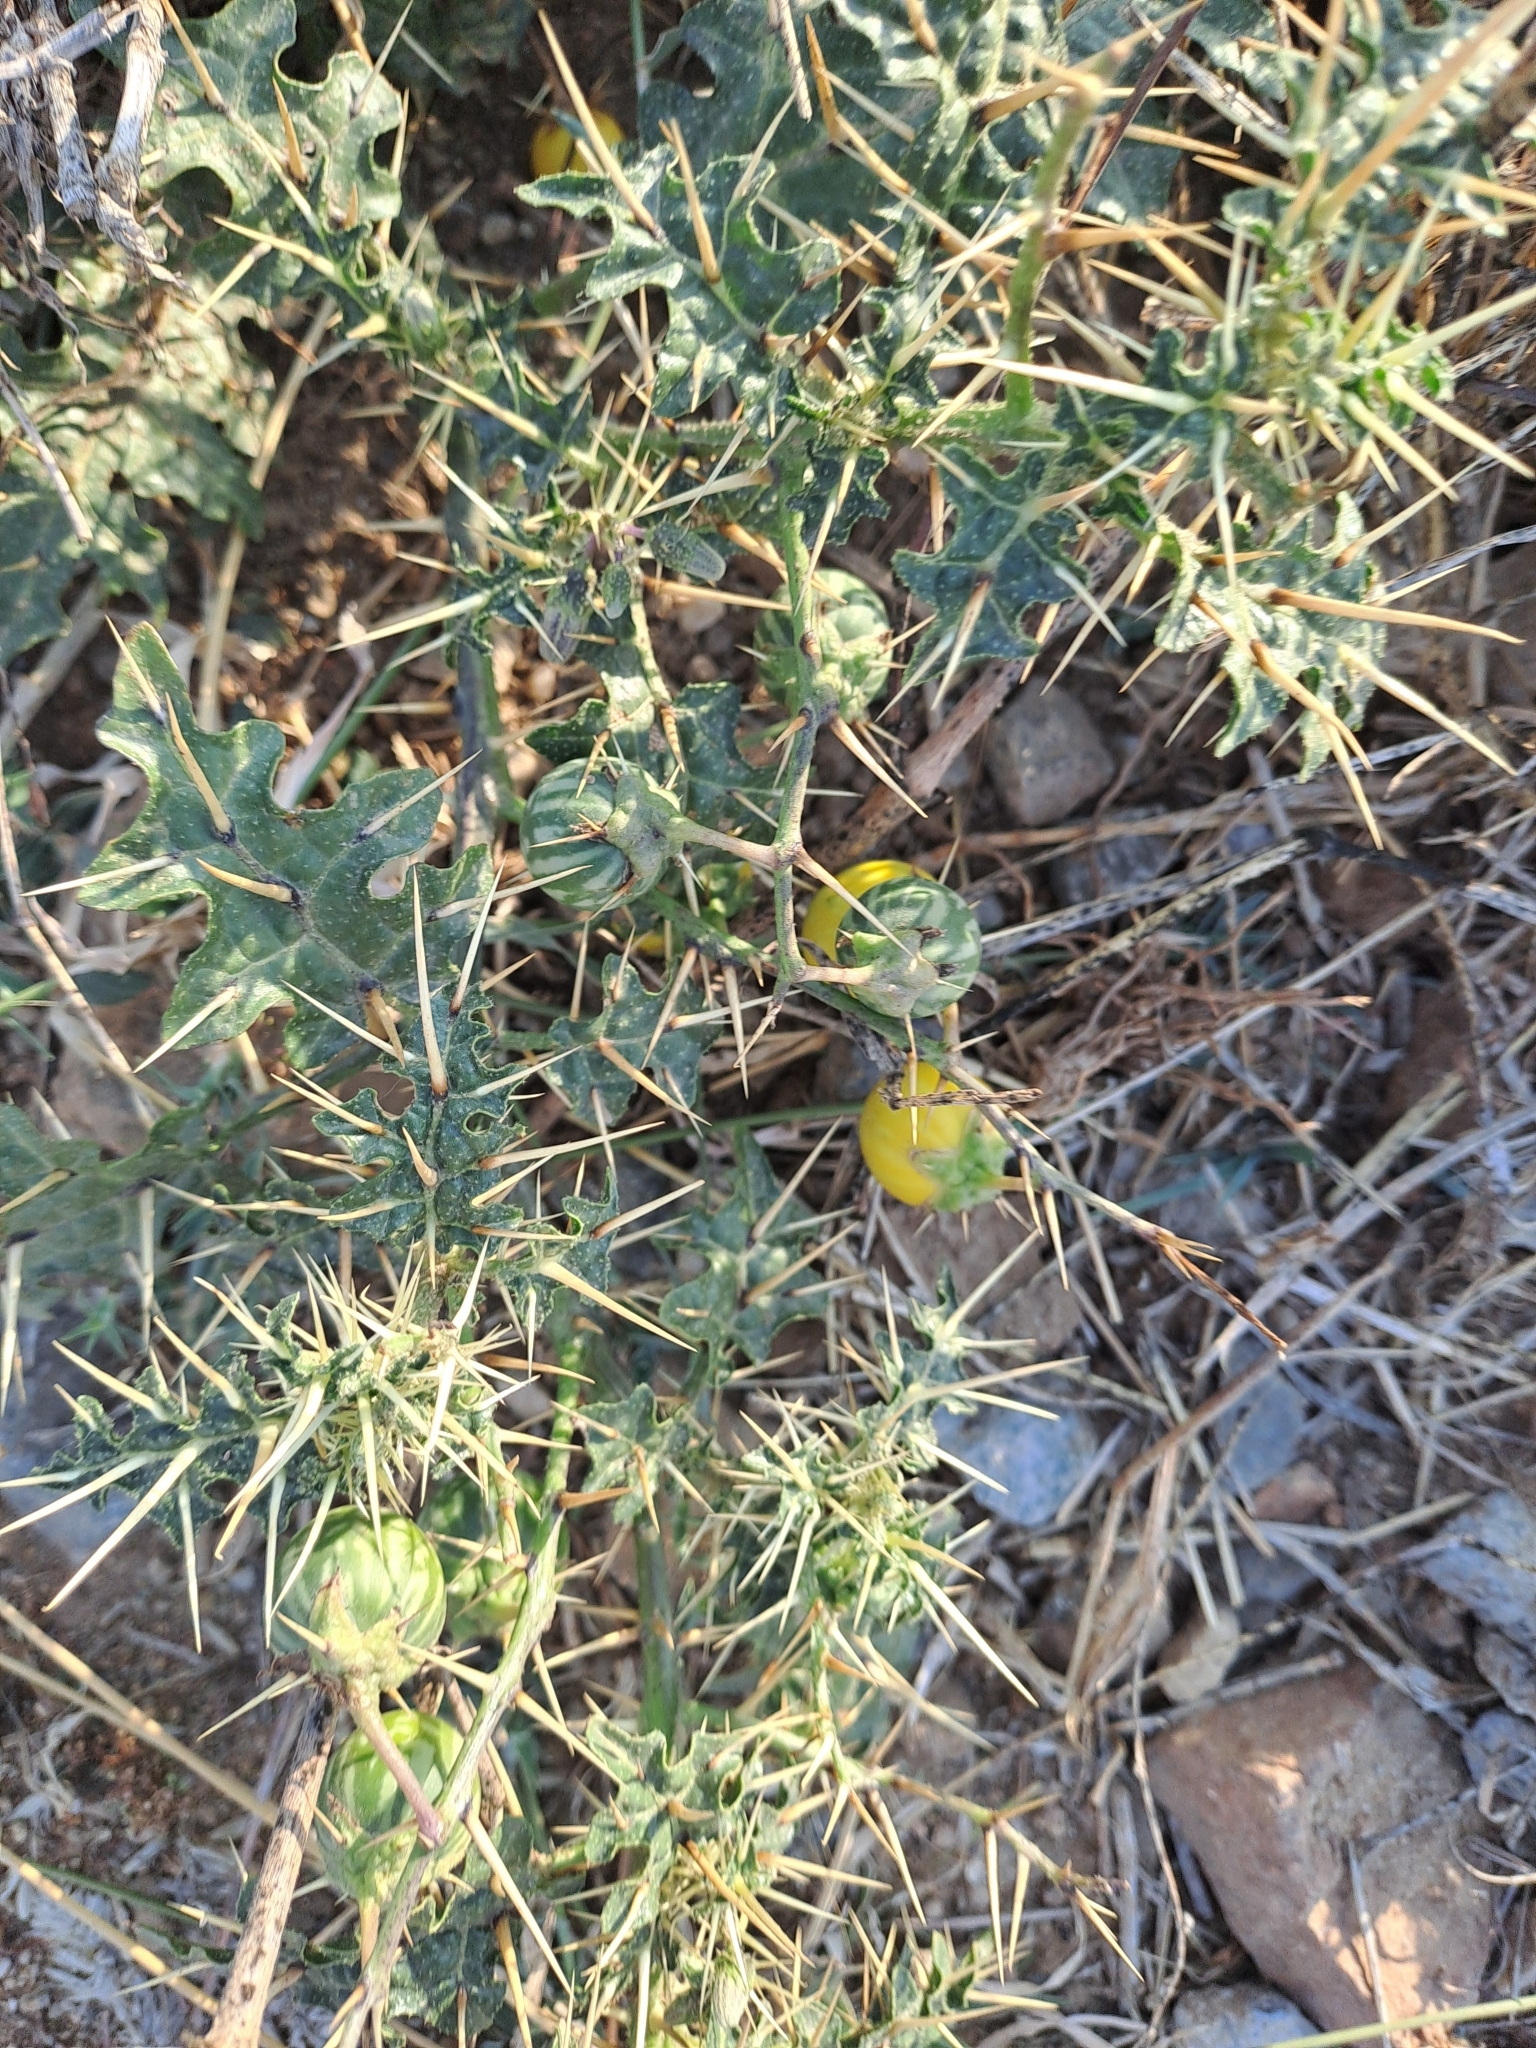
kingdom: Plantae
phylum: Tracheophyta
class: Magnoliopsida
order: Solanales
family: Solanaceae
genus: Solanum
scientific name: Solanum virginianum
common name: Surattense nightshade
